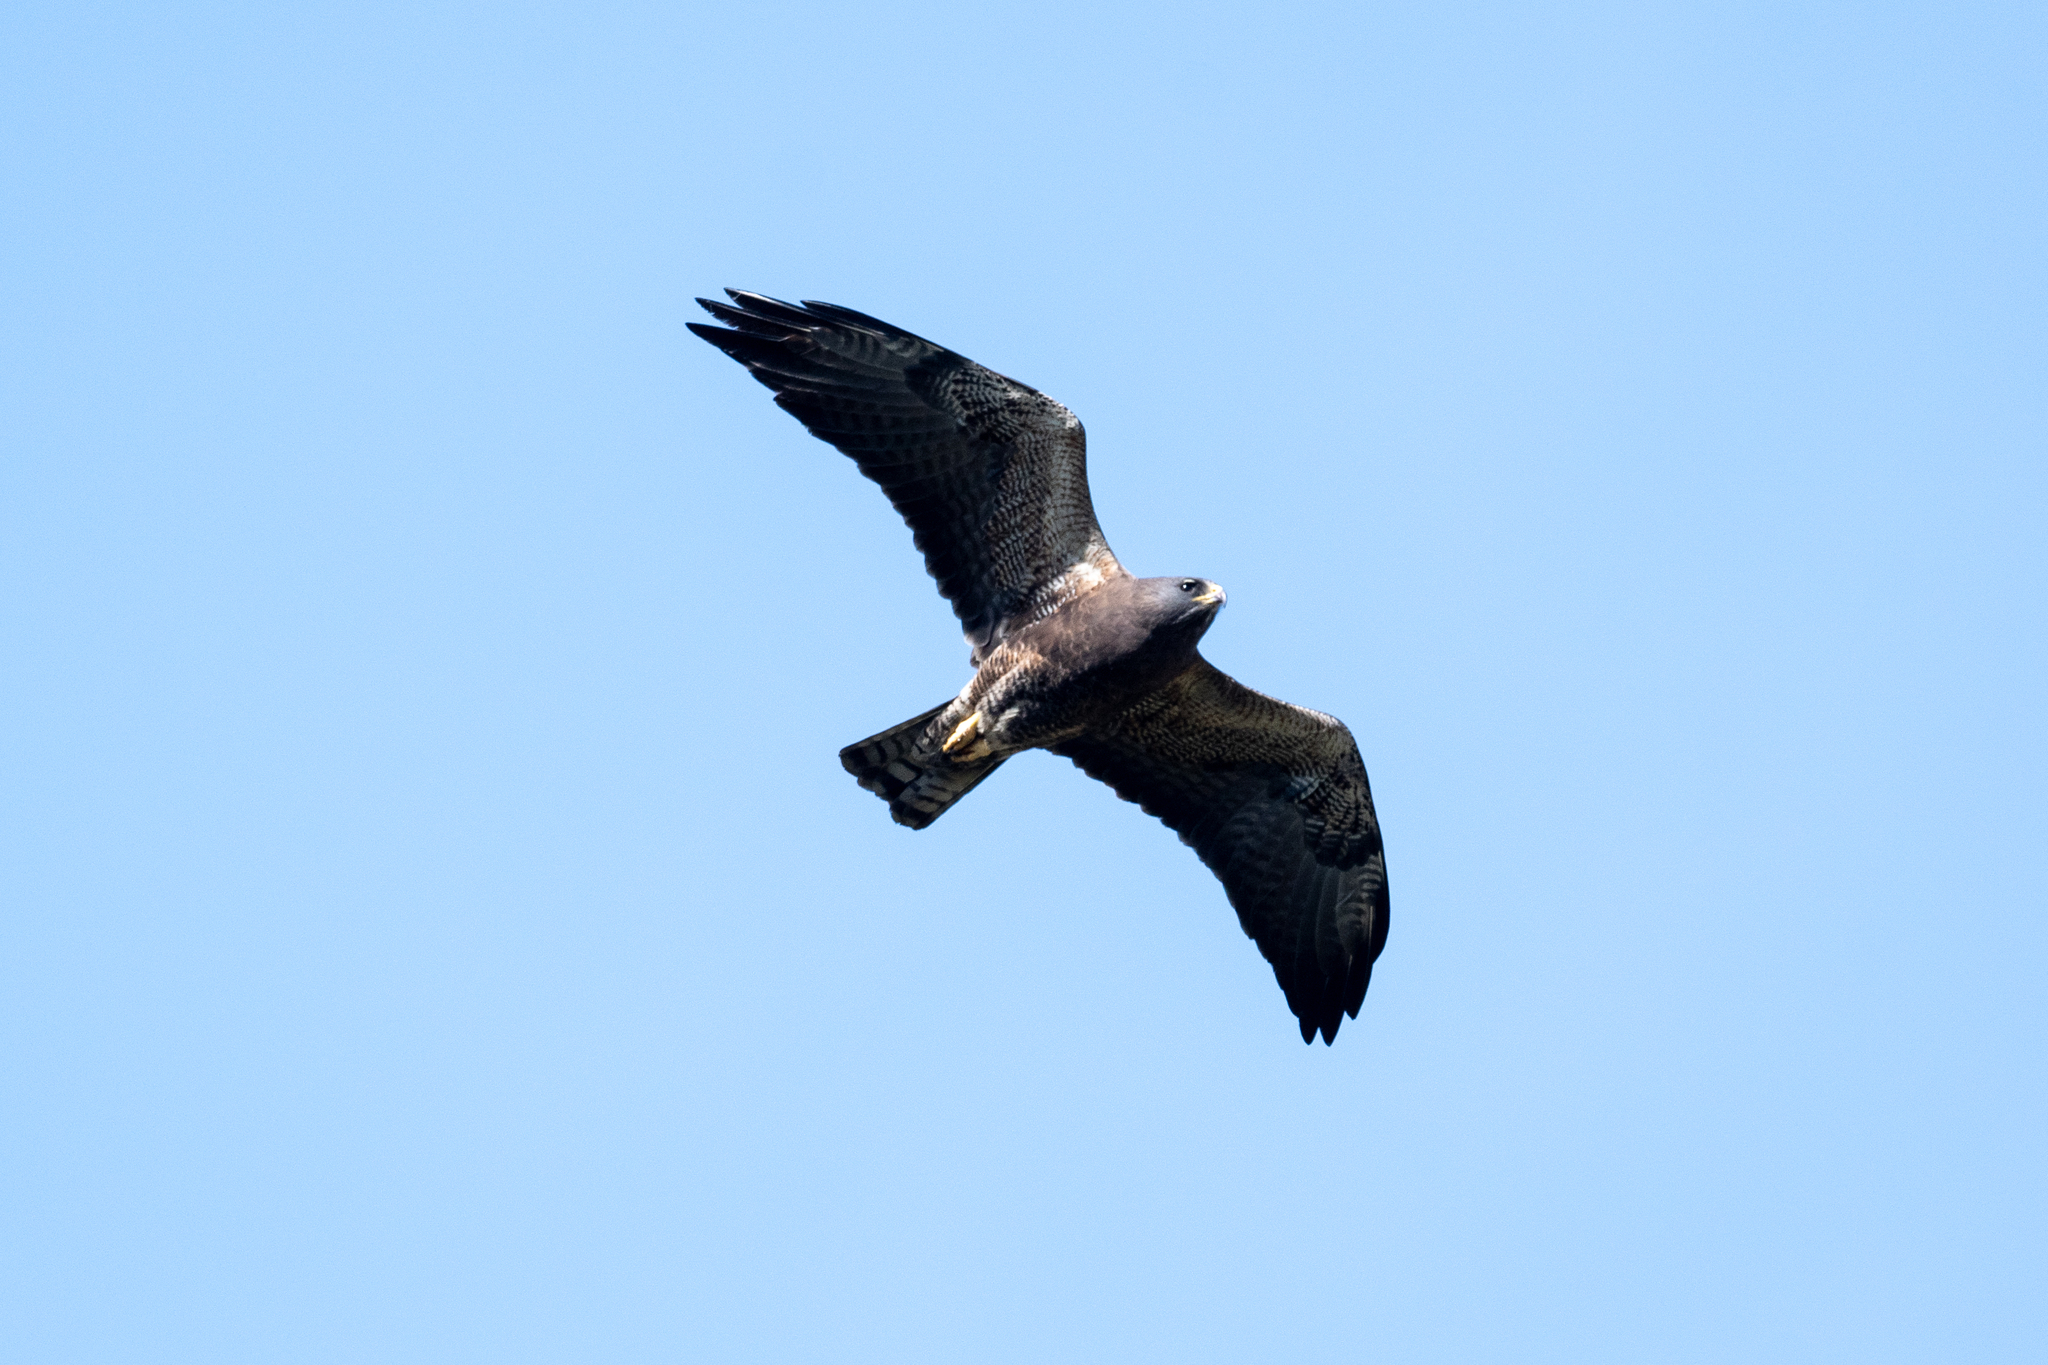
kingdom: Animalia
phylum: Chordata
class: Aves
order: Accipitriformes
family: Accipitridae
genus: Buteo
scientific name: Buteo swainsoni
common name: Swainson's hawk
